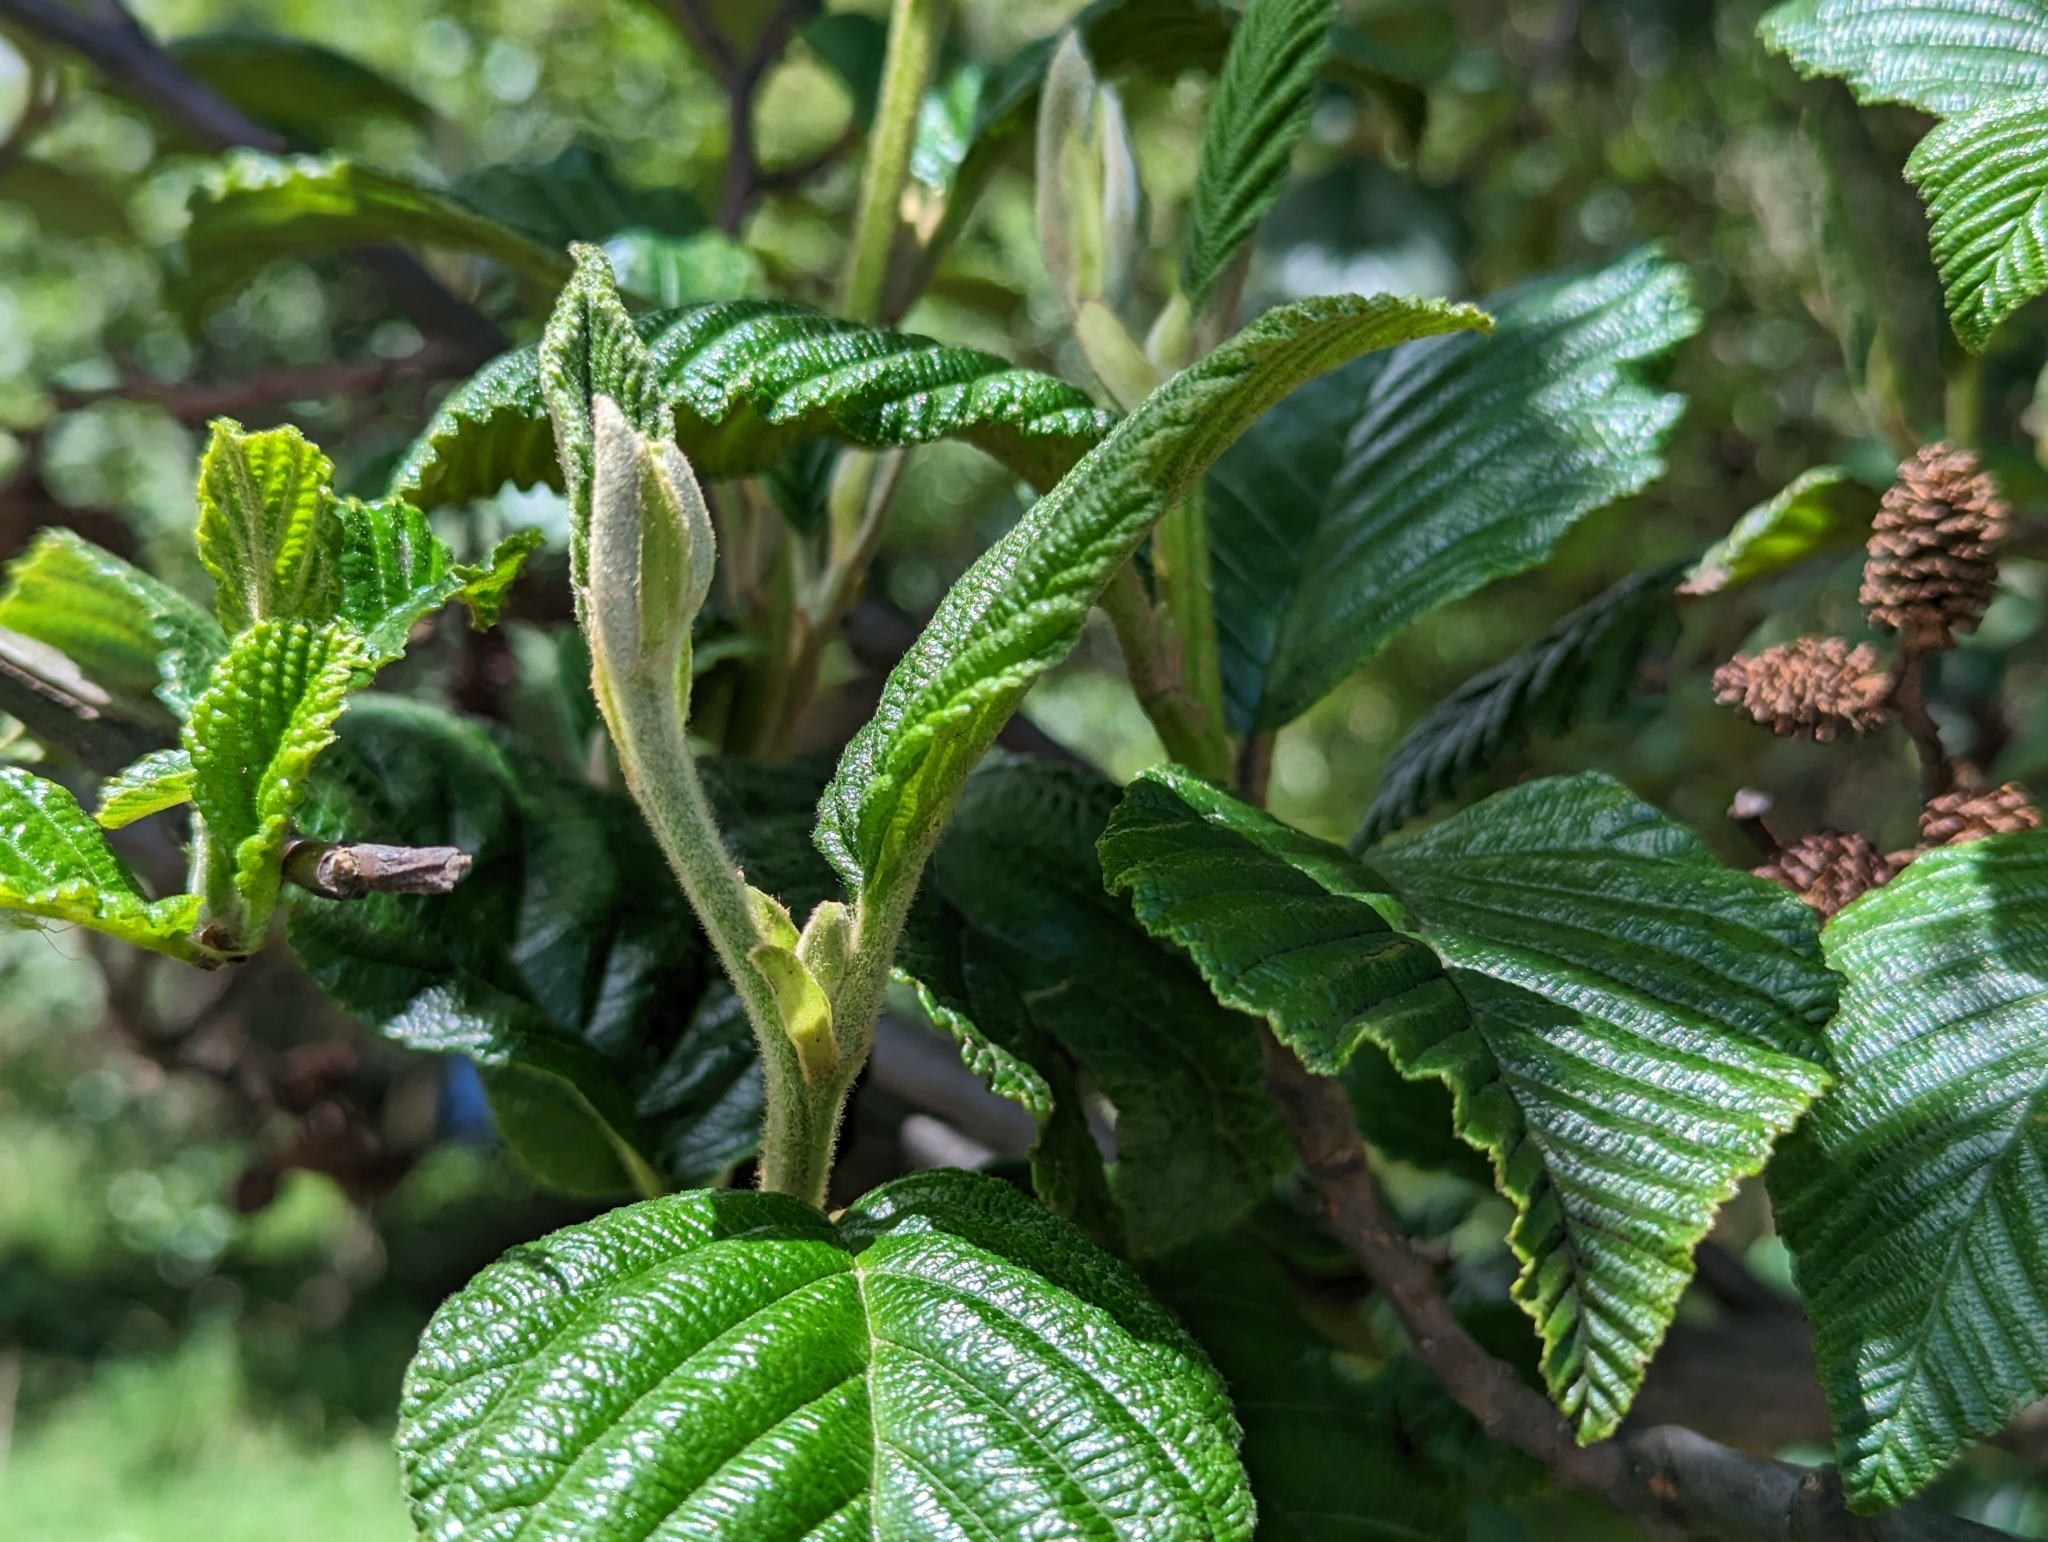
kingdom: Plantae
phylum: Tracheophyta
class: Magnoliopsida
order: Fagales
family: Betulaceae
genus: Alnus
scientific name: Alnus acuminata
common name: Alder
